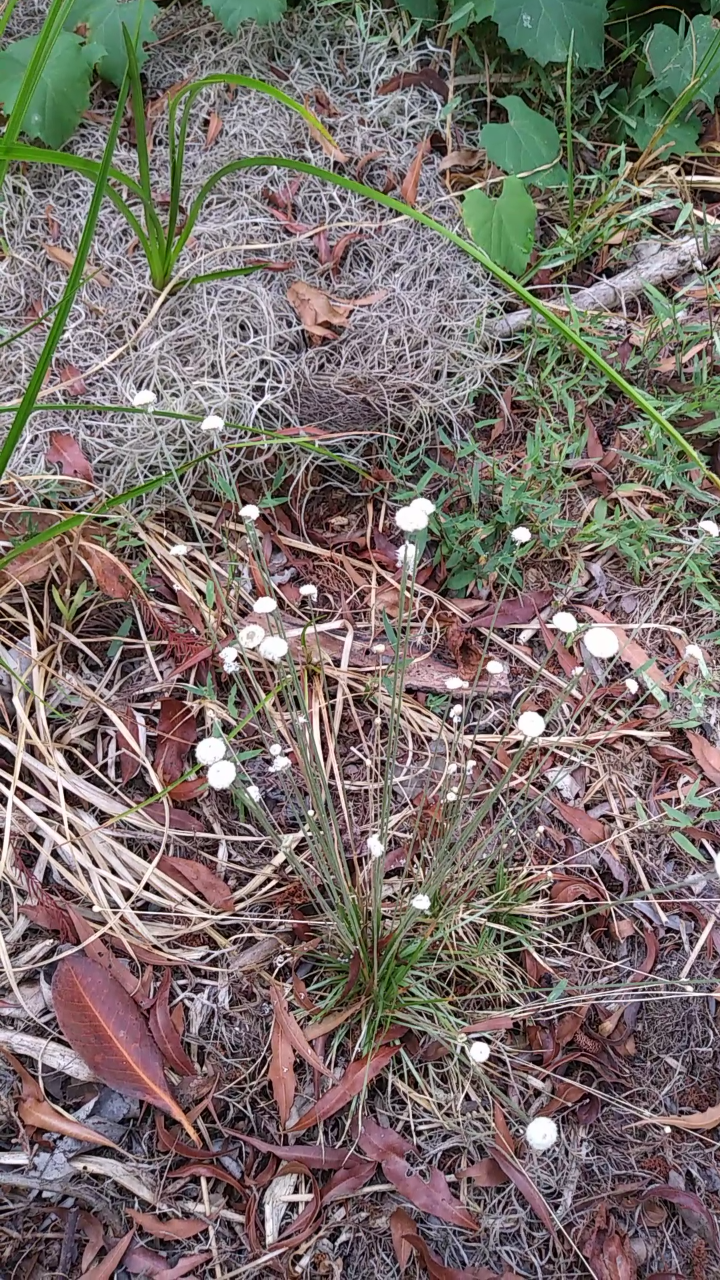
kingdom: Plantae
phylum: Tracheophyta
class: Liliopsida
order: Poales
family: Eriocaulaceae
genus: Syngonanthus
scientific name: Syngonanthus flavidulus
